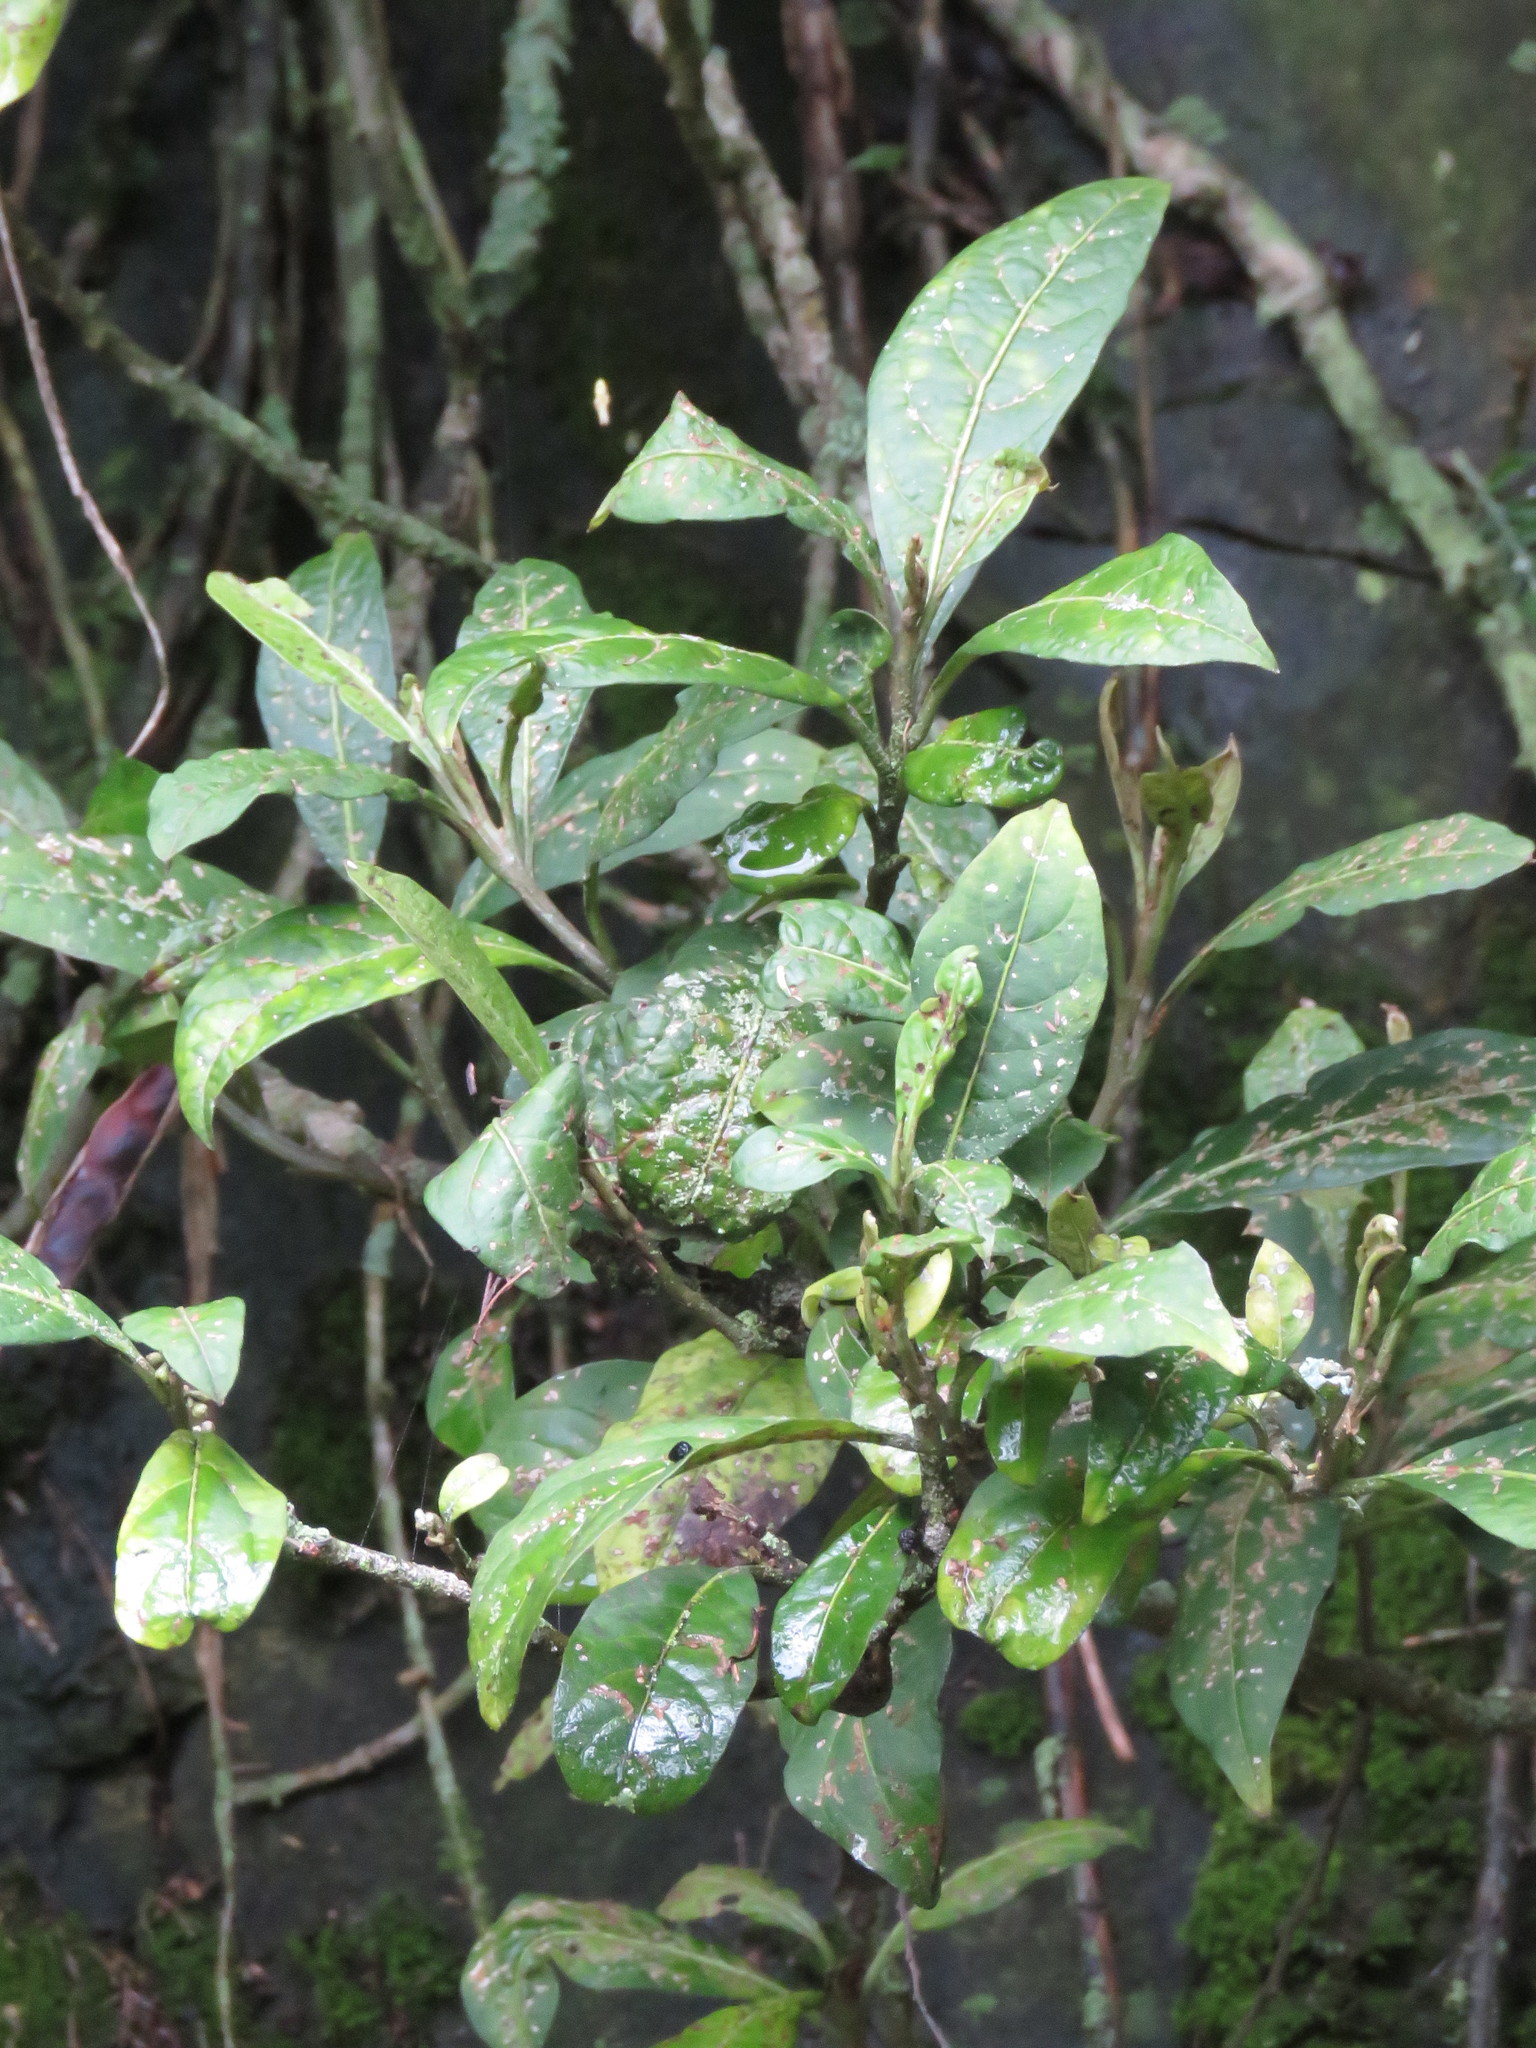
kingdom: Plantae
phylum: Tracheophyta
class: Magnoliopsida
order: Solanales
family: Solanaceae
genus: Solanum
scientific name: Solanum cornifolium
